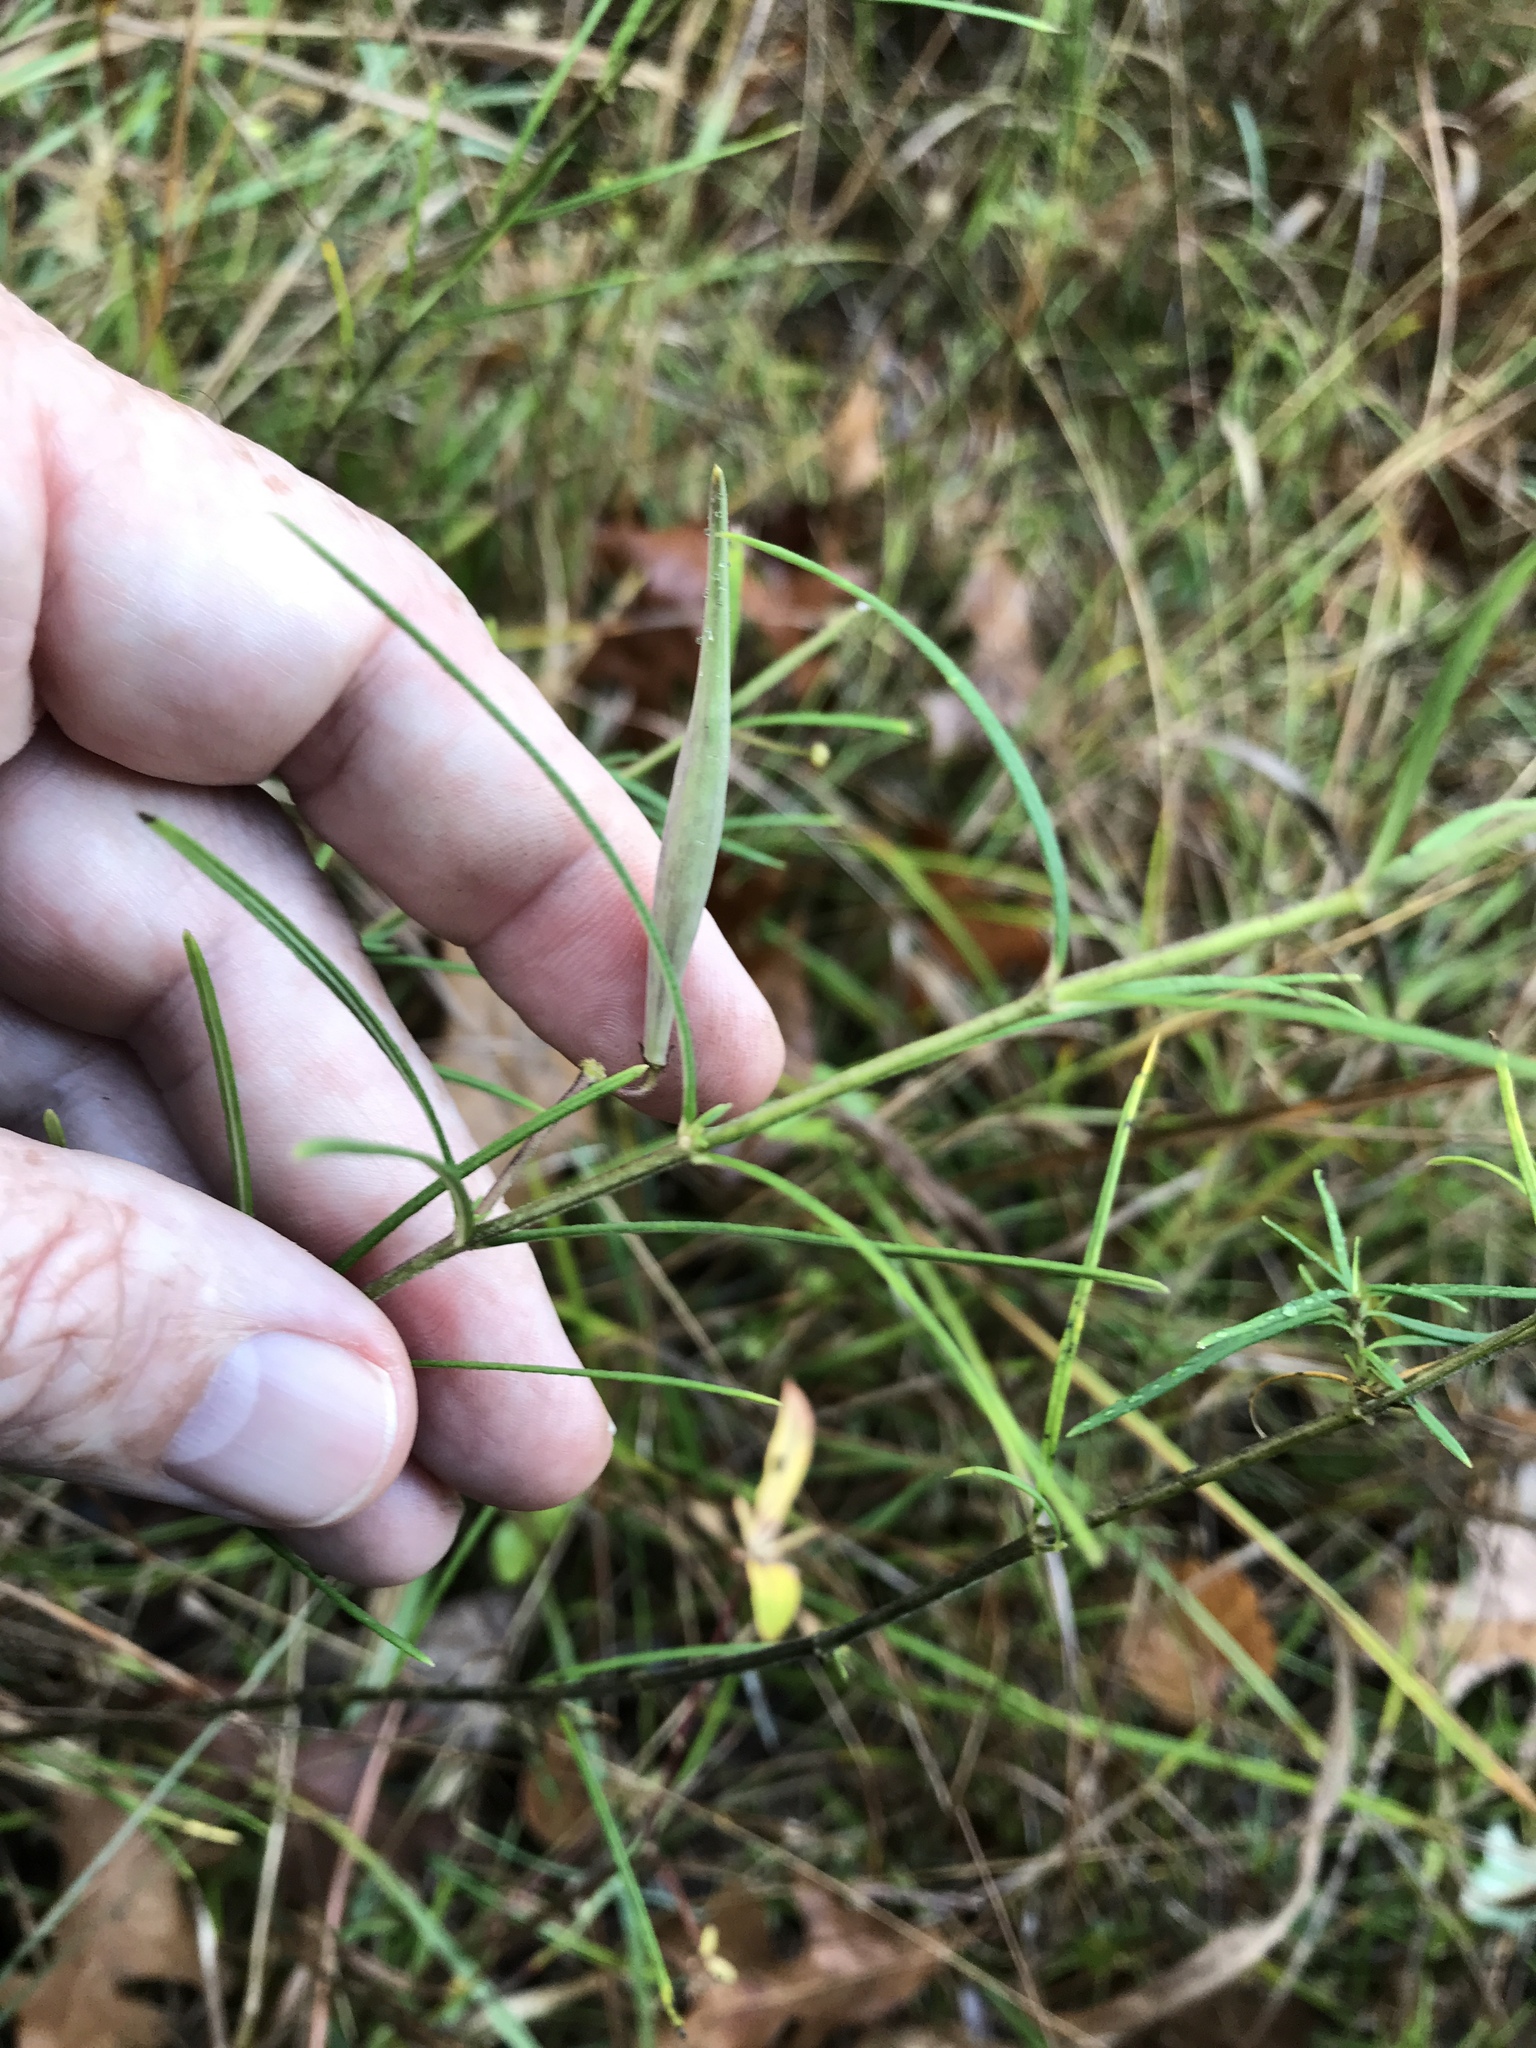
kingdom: Plantae
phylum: Tracheophyta
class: Magnoliopsida
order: Gentianales
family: Apocynaceae
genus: Asclepias
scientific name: Asclepias verticillata
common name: Eastern whorled milkweed
